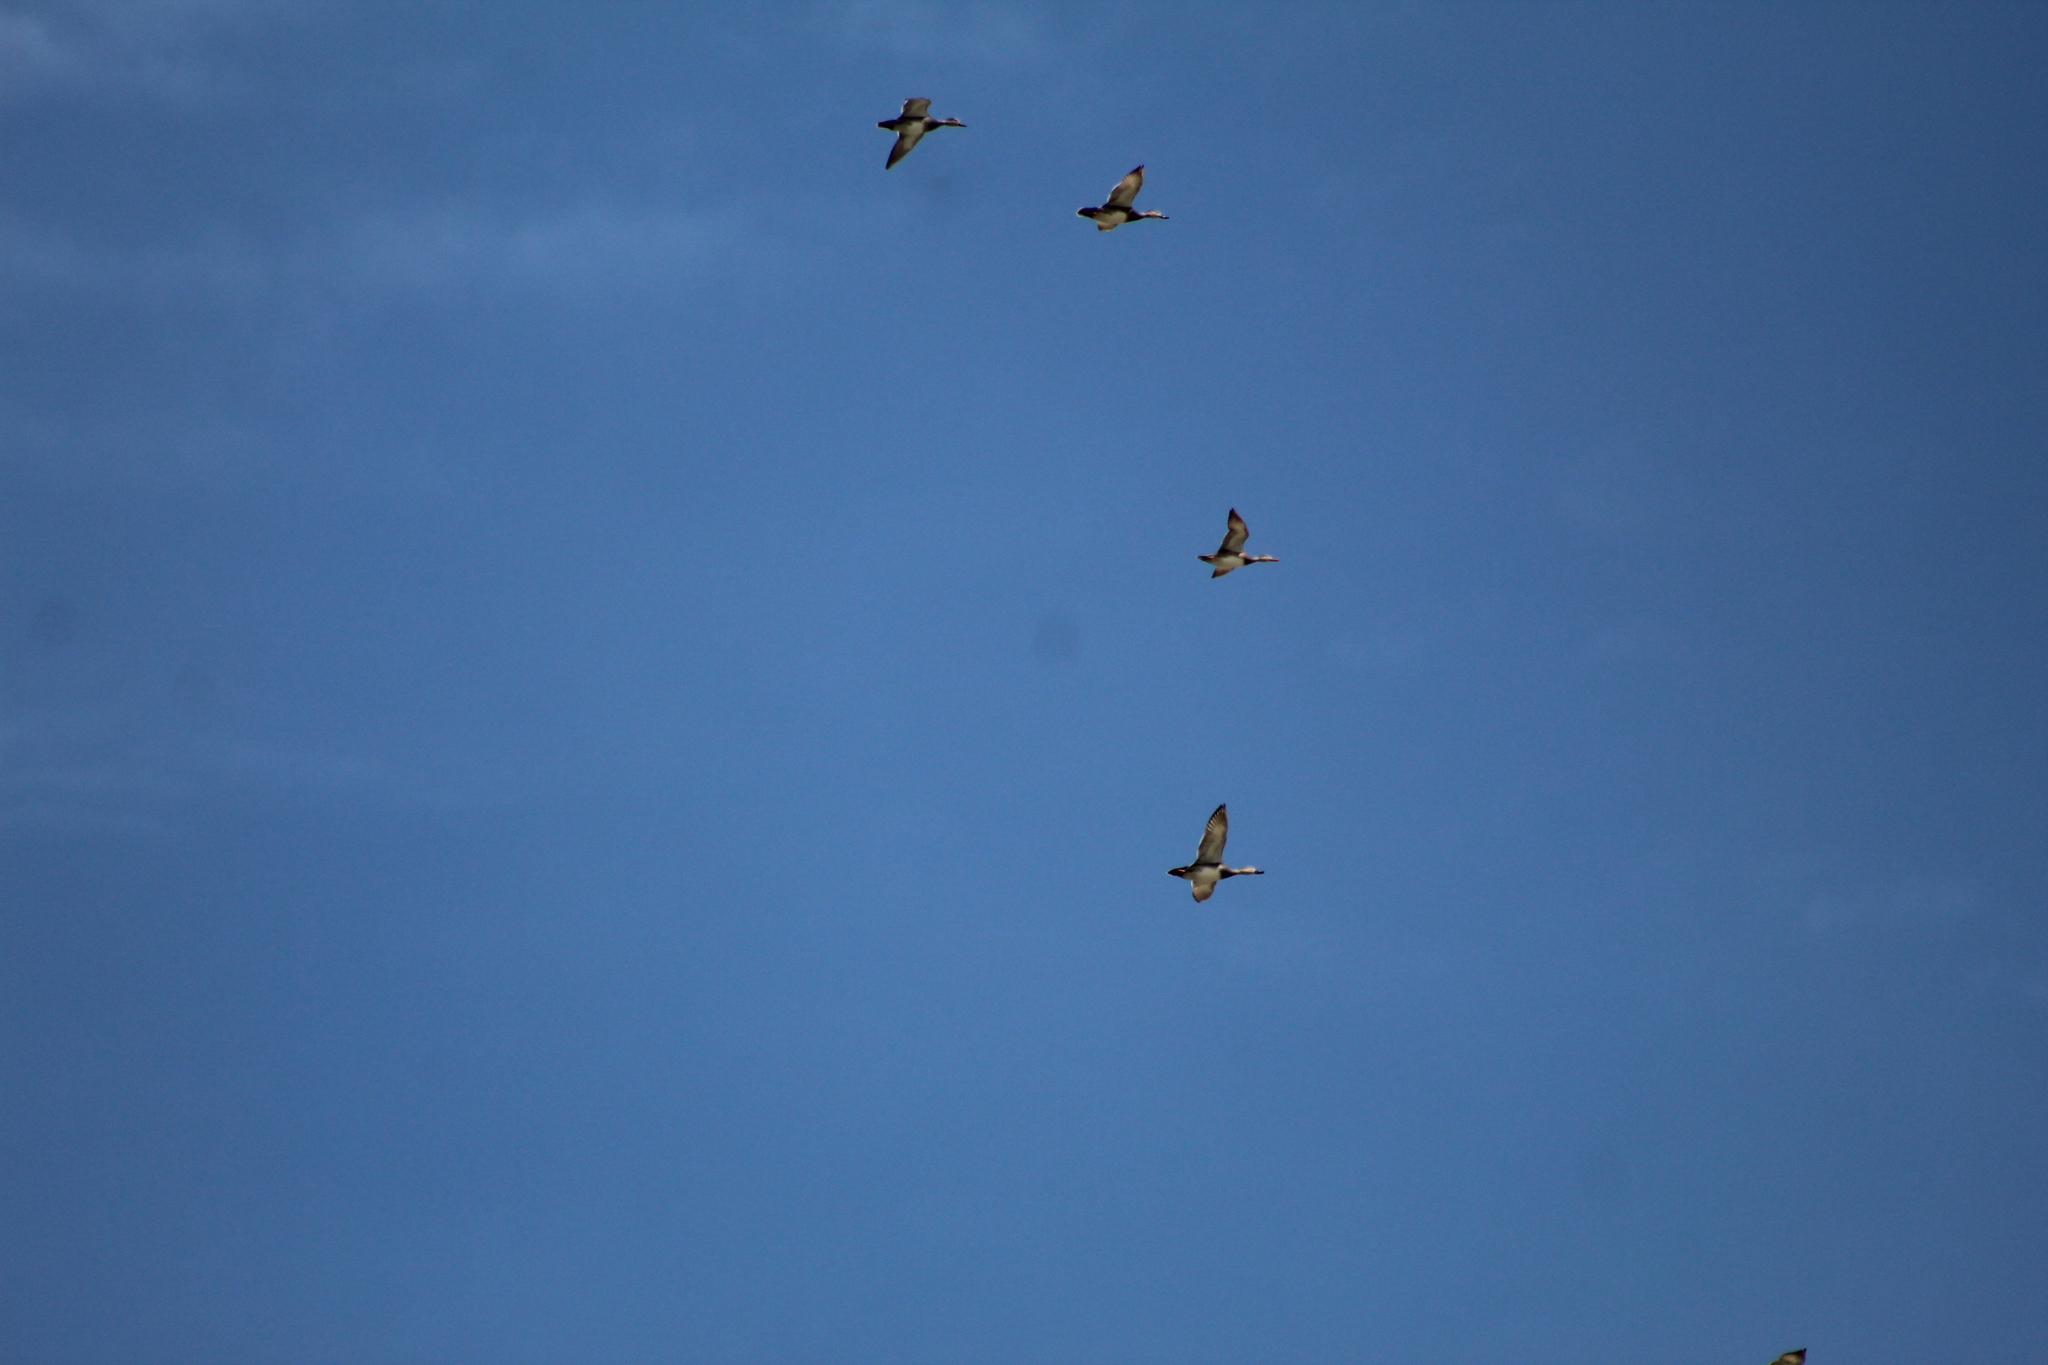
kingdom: Animalia
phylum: Chordata
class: Aves
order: Anseriformes
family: Anatidae
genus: Mareca
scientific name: Mareca strepera
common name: Gadwall
